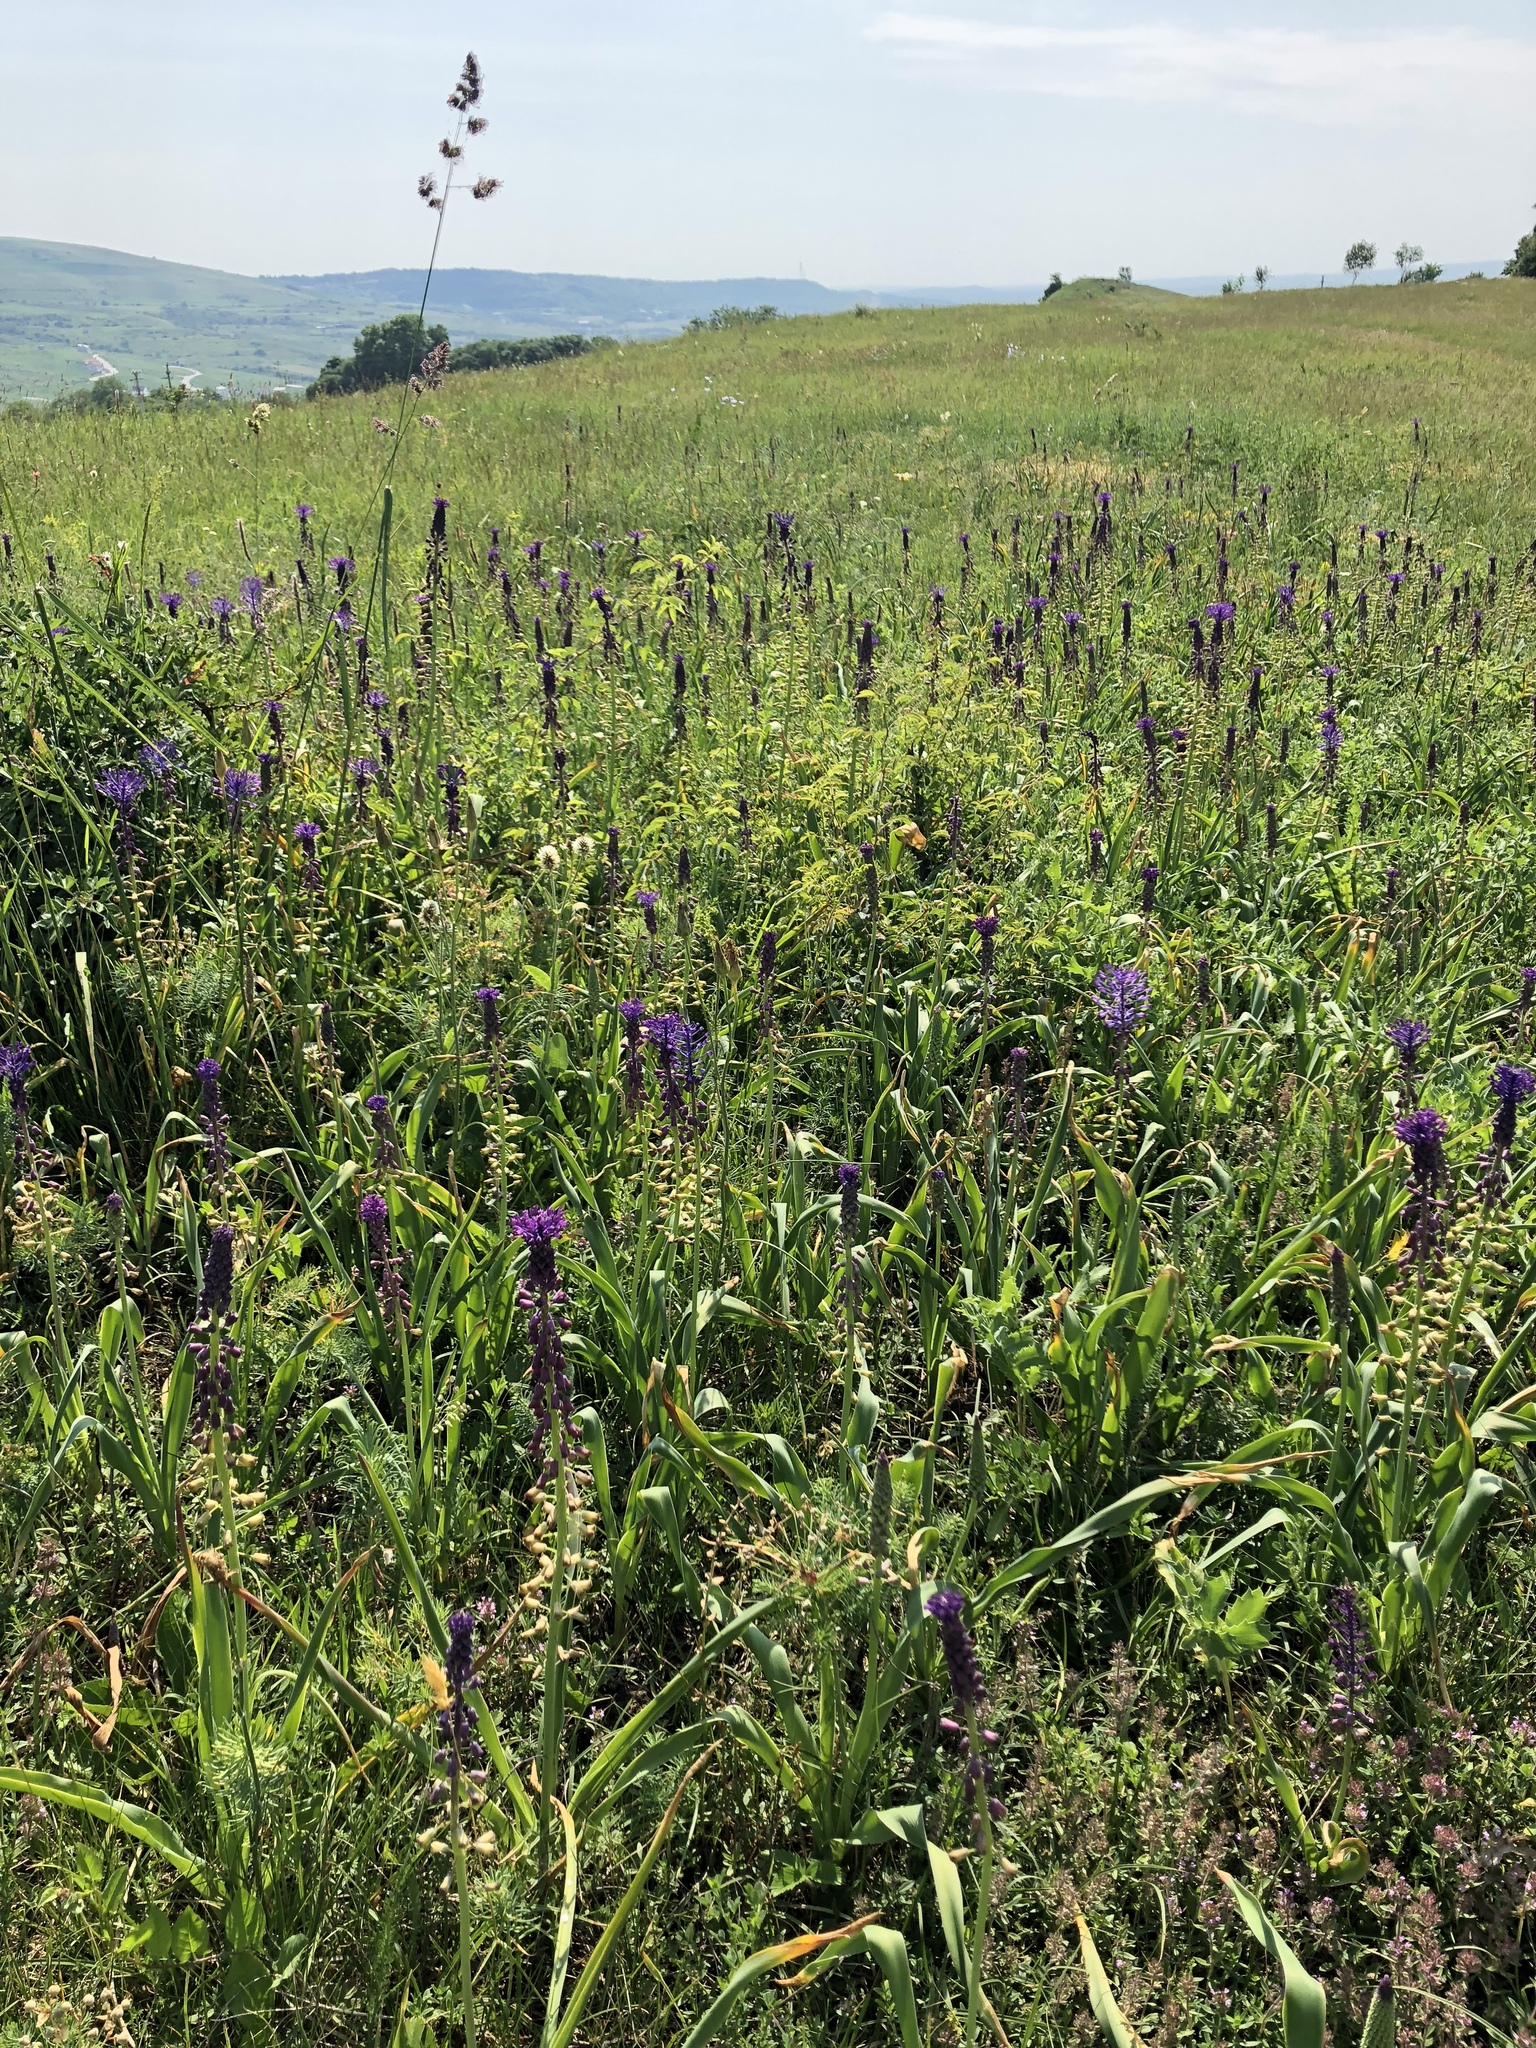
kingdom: Plantae
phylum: Tracheophyta
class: Liliopsida
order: Asparagales
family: Asparagaceae
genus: Muscari
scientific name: Muscari comosum
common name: Tassel hyacinth
